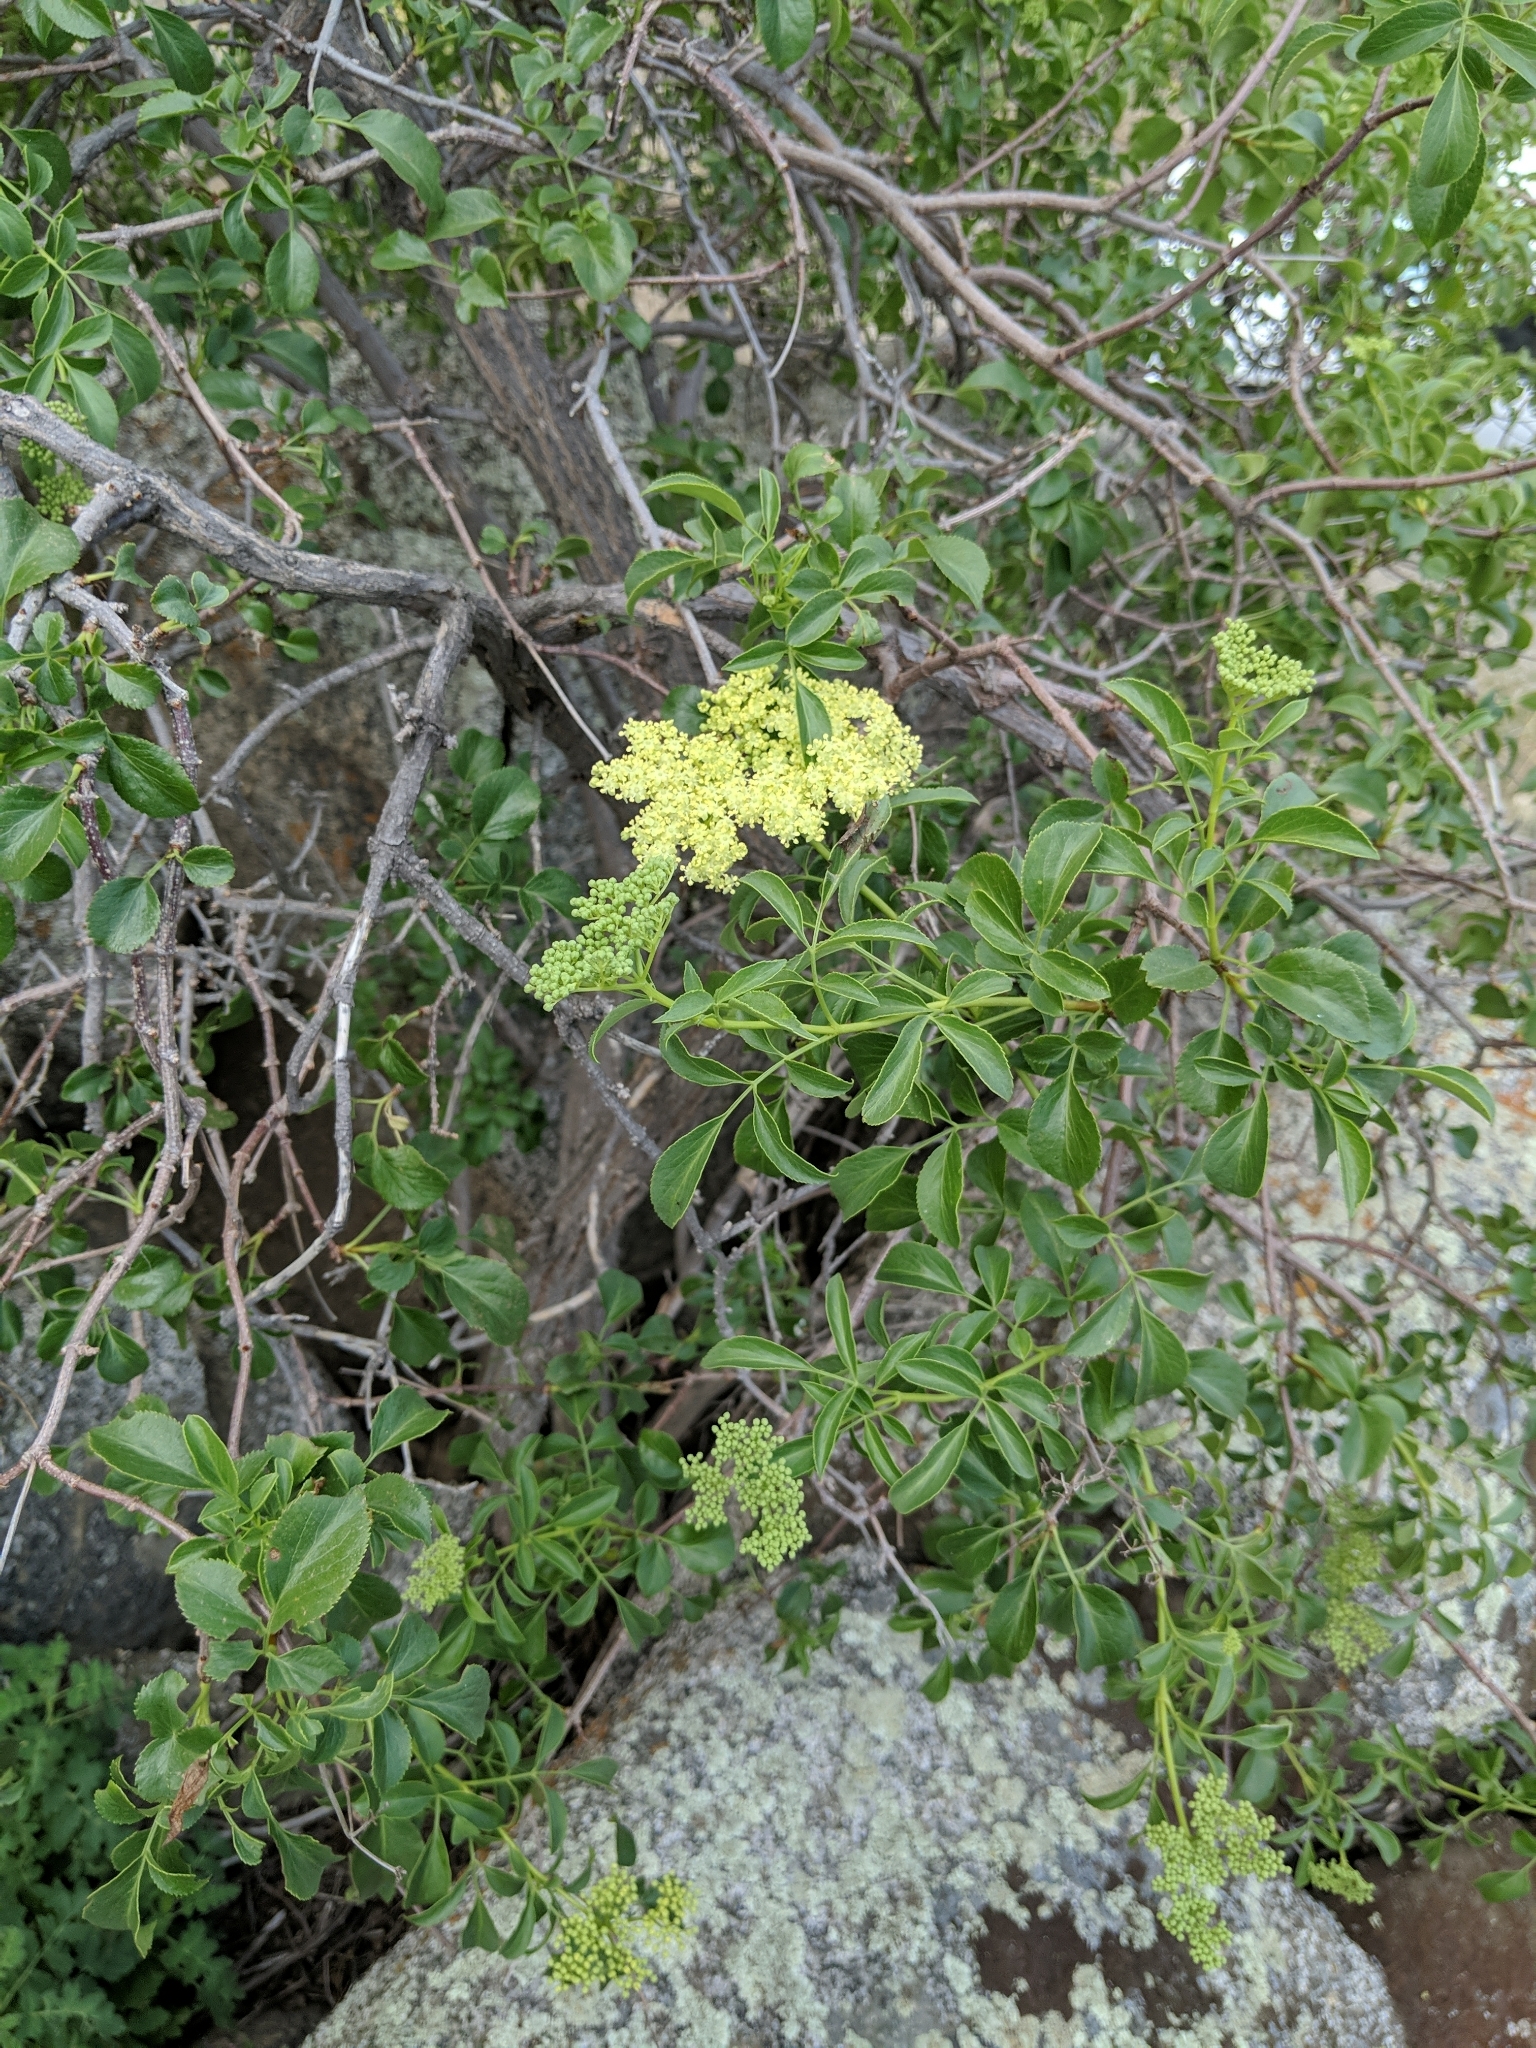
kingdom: Plantae
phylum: Tracheophyta
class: Magnoliopsida
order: Dipsacales
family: Viburnaceae
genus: Sambucus
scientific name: Sambucus cerulea
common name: Blue elder
